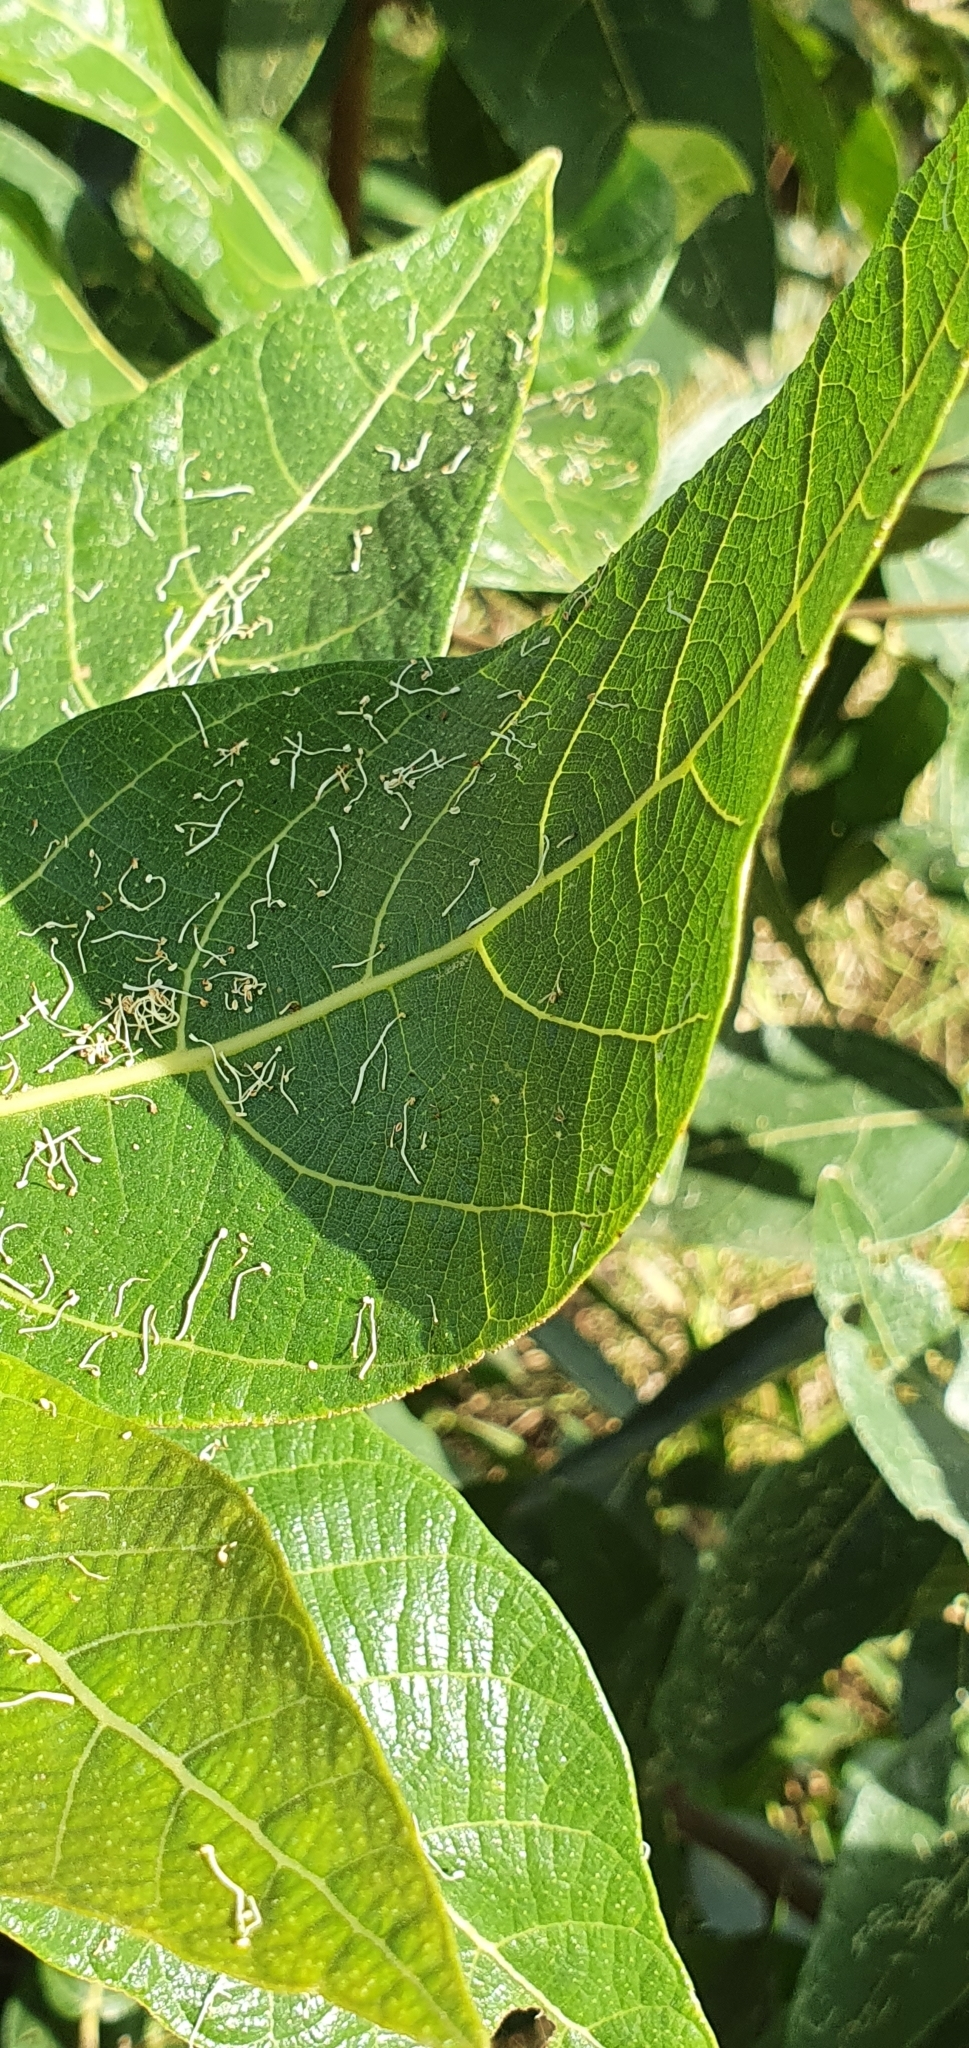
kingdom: Plantae
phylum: Tracheophyta
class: Magnoliopsida
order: Rosales
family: Moraceae
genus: Ficus
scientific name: Ficus opposita
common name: Figwood
